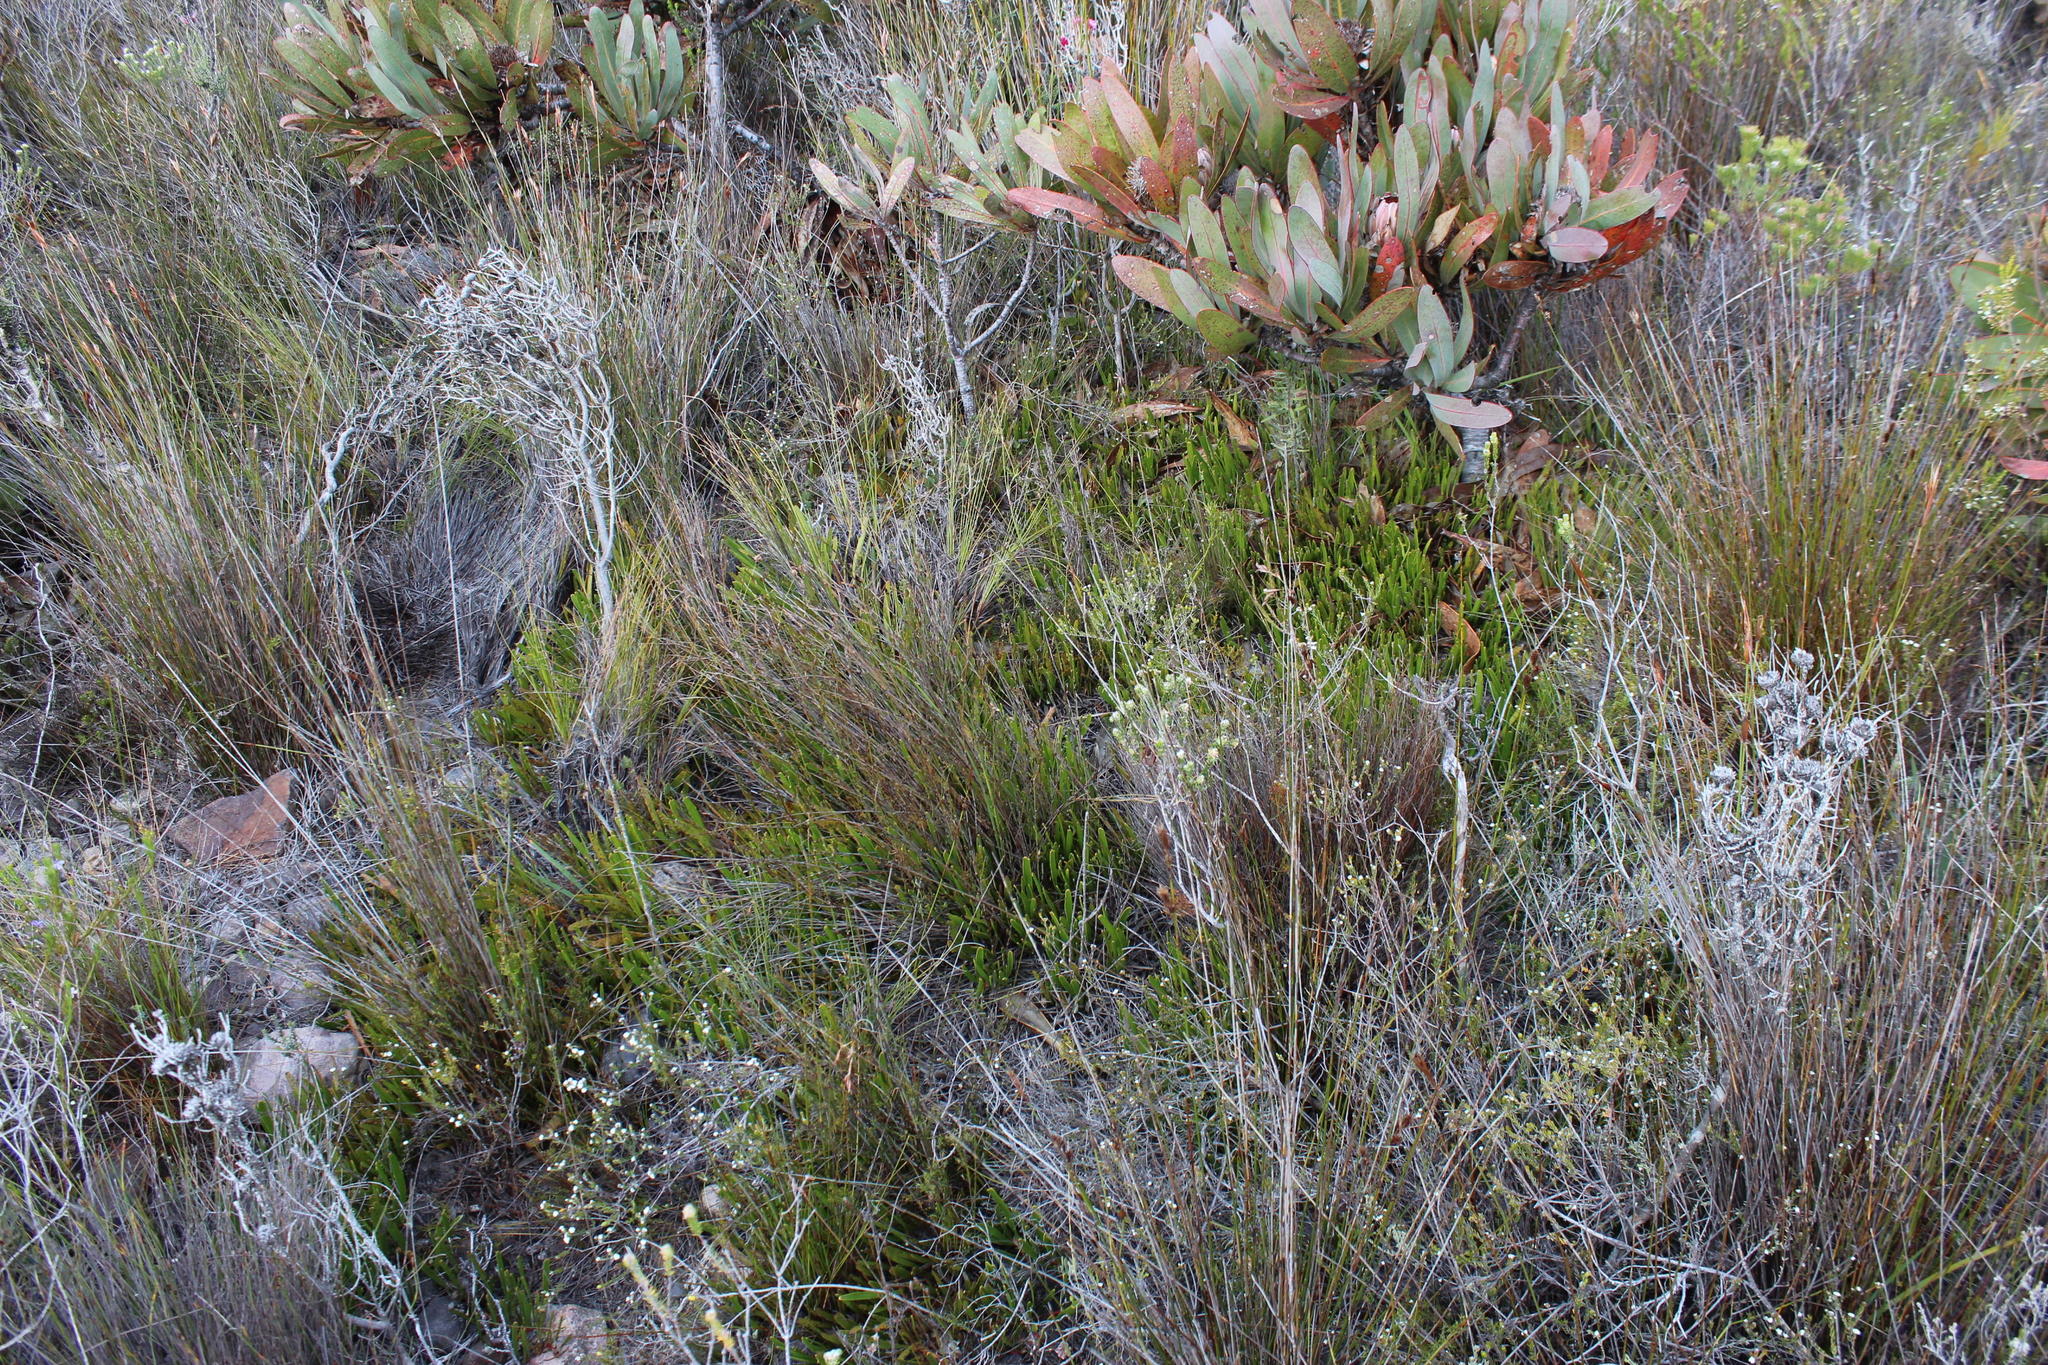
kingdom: Plantae
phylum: Tracheophyta
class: Magnoliopsida
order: Rosales
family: Rhamnaceae
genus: Phylica
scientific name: Phylica stenantha
